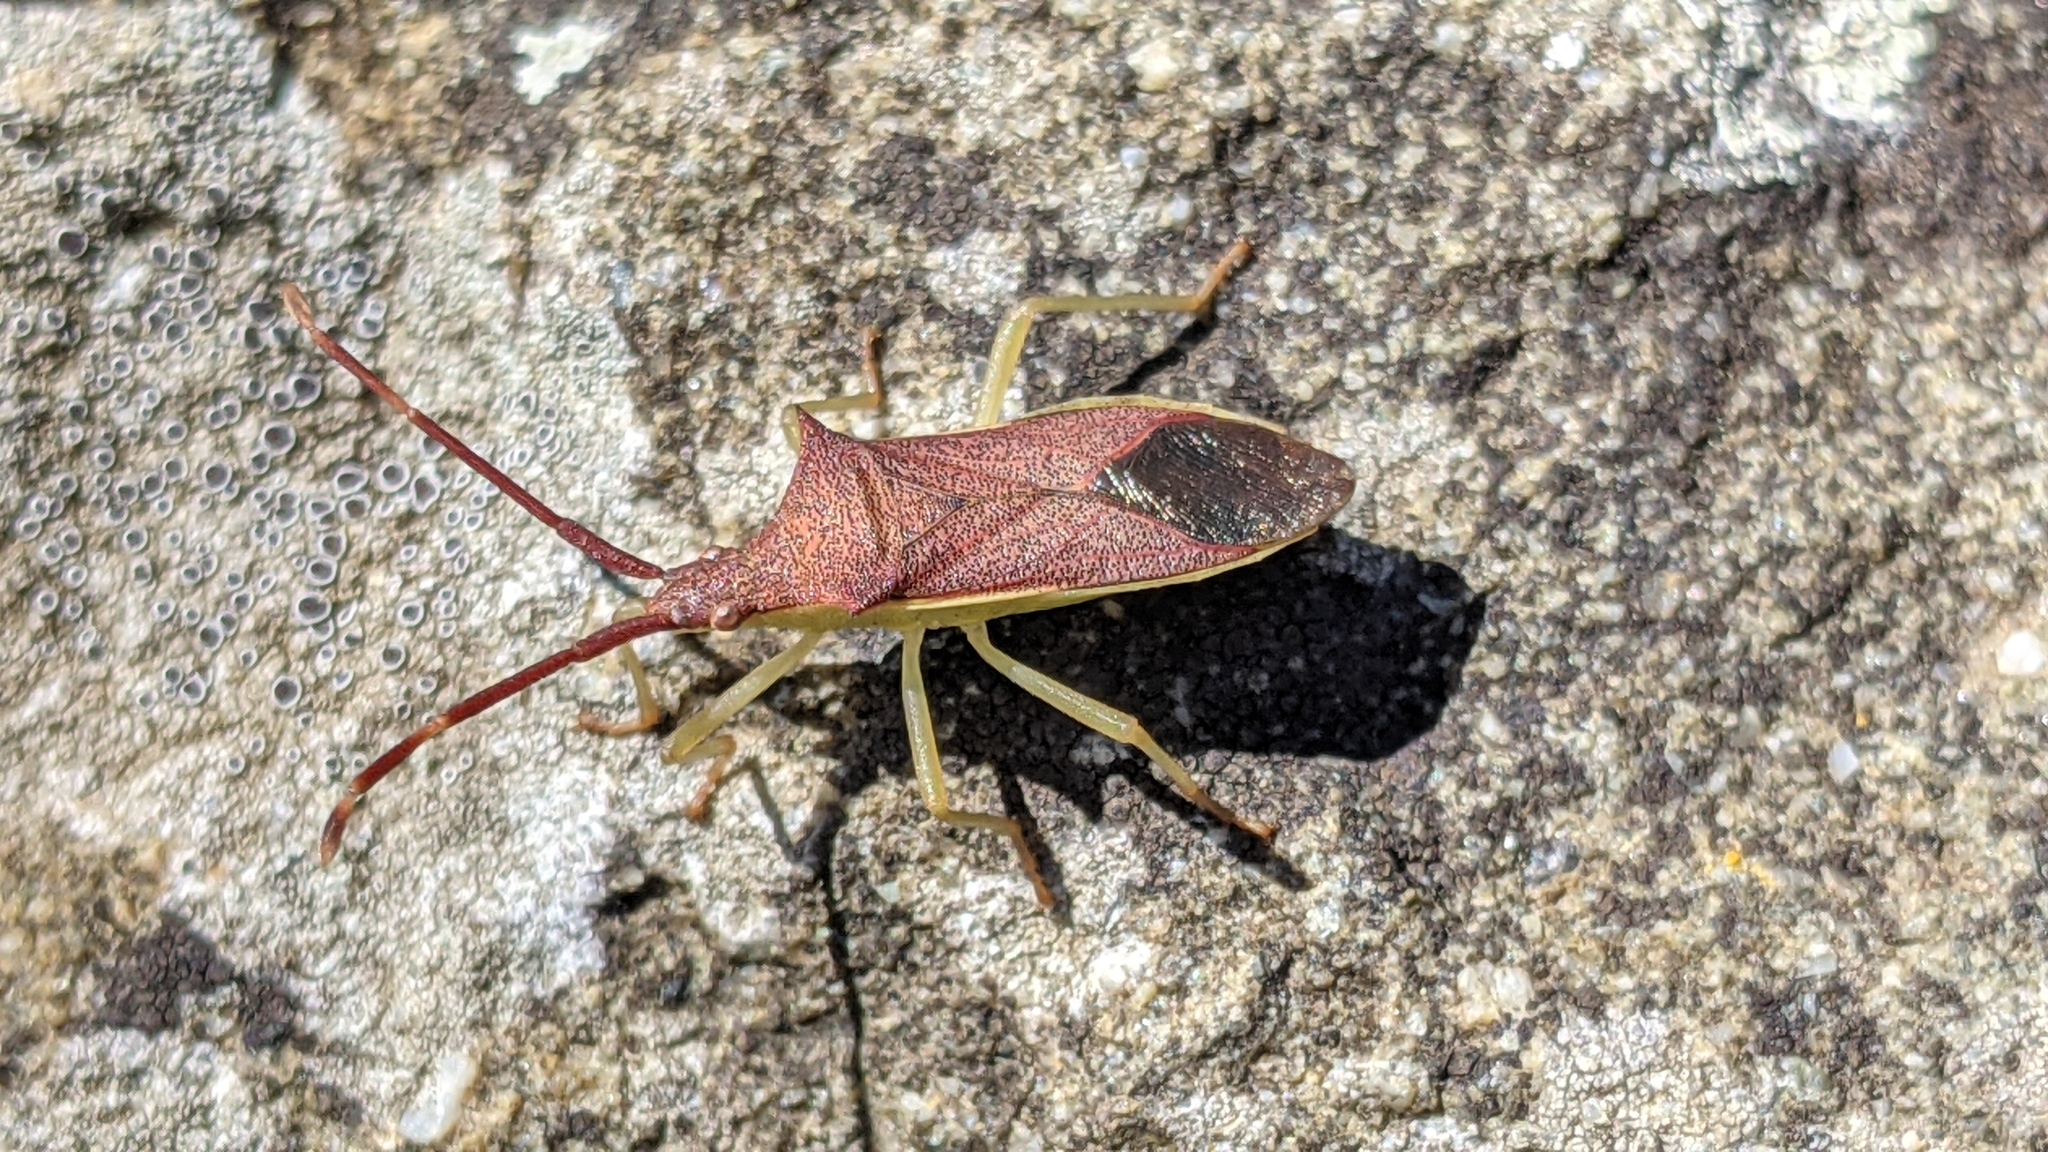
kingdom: Animalia
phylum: Arthropoda
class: Insecta
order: Hemiptera
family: Coreidae
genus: Gonocerus
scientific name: Gonocerus insidiator
